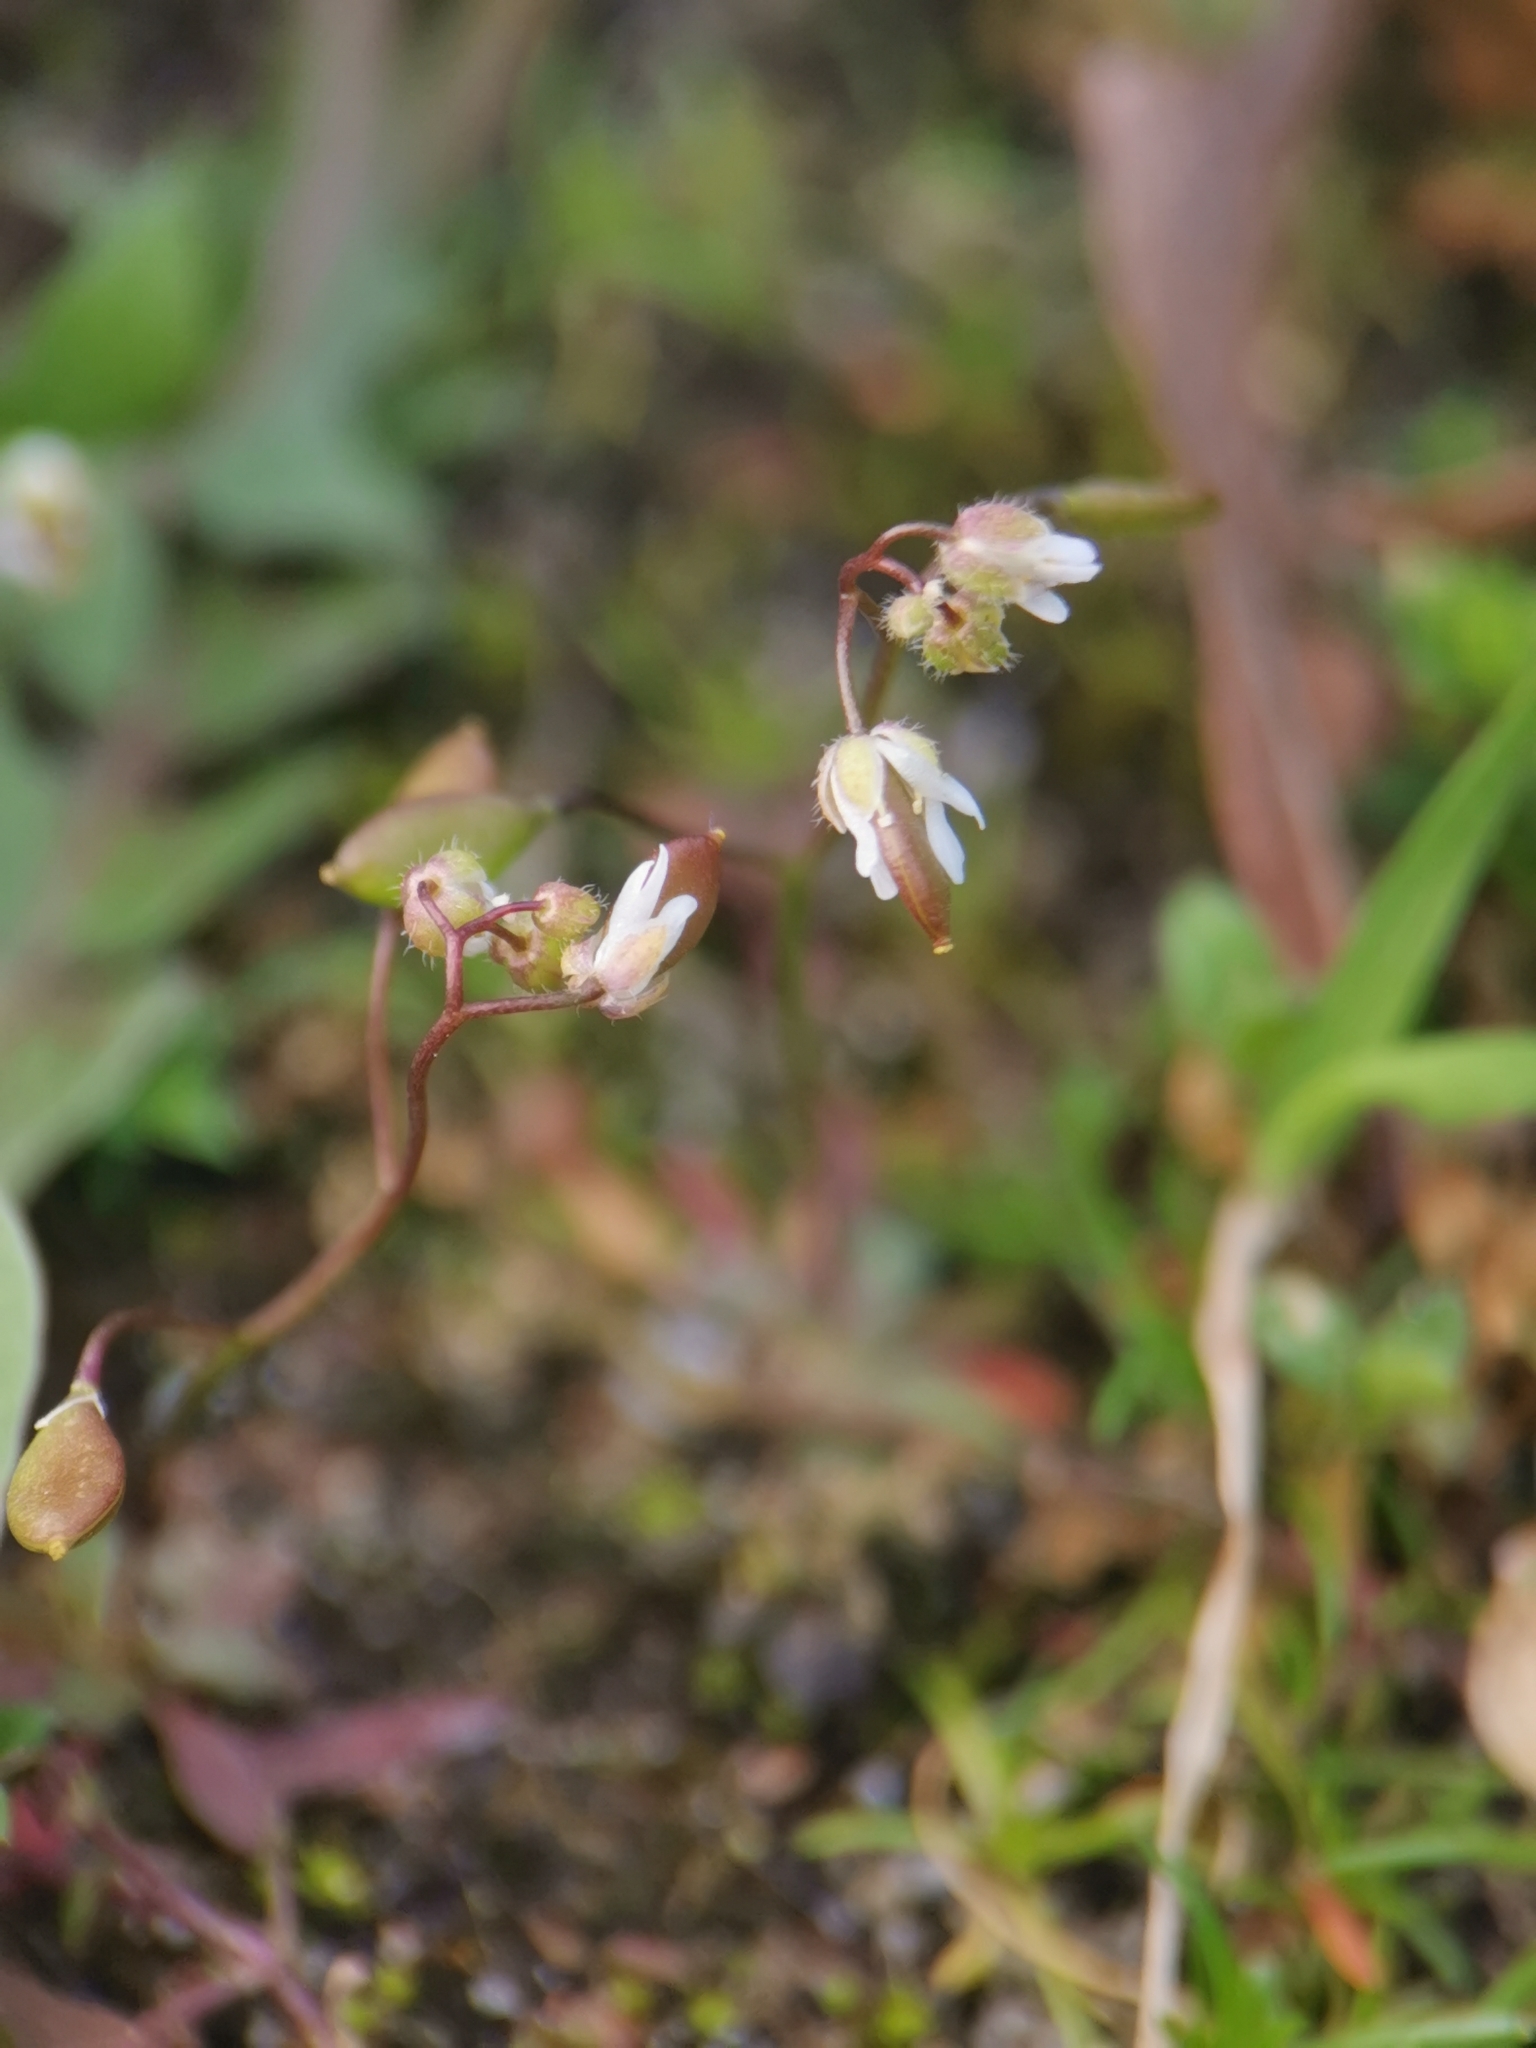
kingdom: Plantae
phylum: Tracheophyta
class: Magnoliopsida
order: Brassicales
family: Brassicaceae
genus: Draba
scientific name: Draba verna
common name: Spring draba
